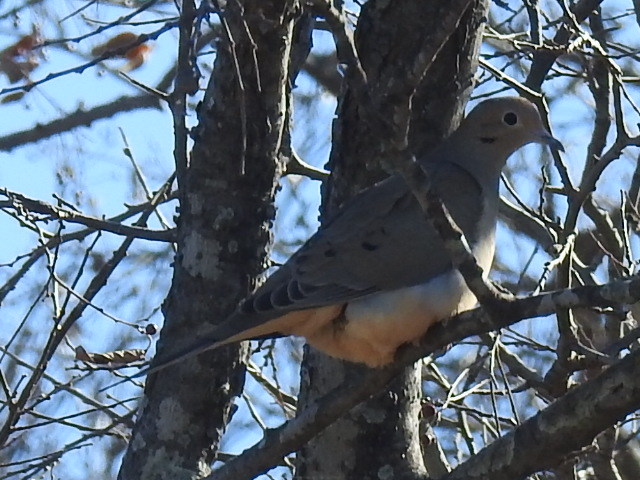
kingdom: Animalia
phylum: Chordata
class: Aves
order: Columbiformes
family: Columbidae
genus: Zenaida
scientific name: Zenaida macroura
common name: Mourning dove
